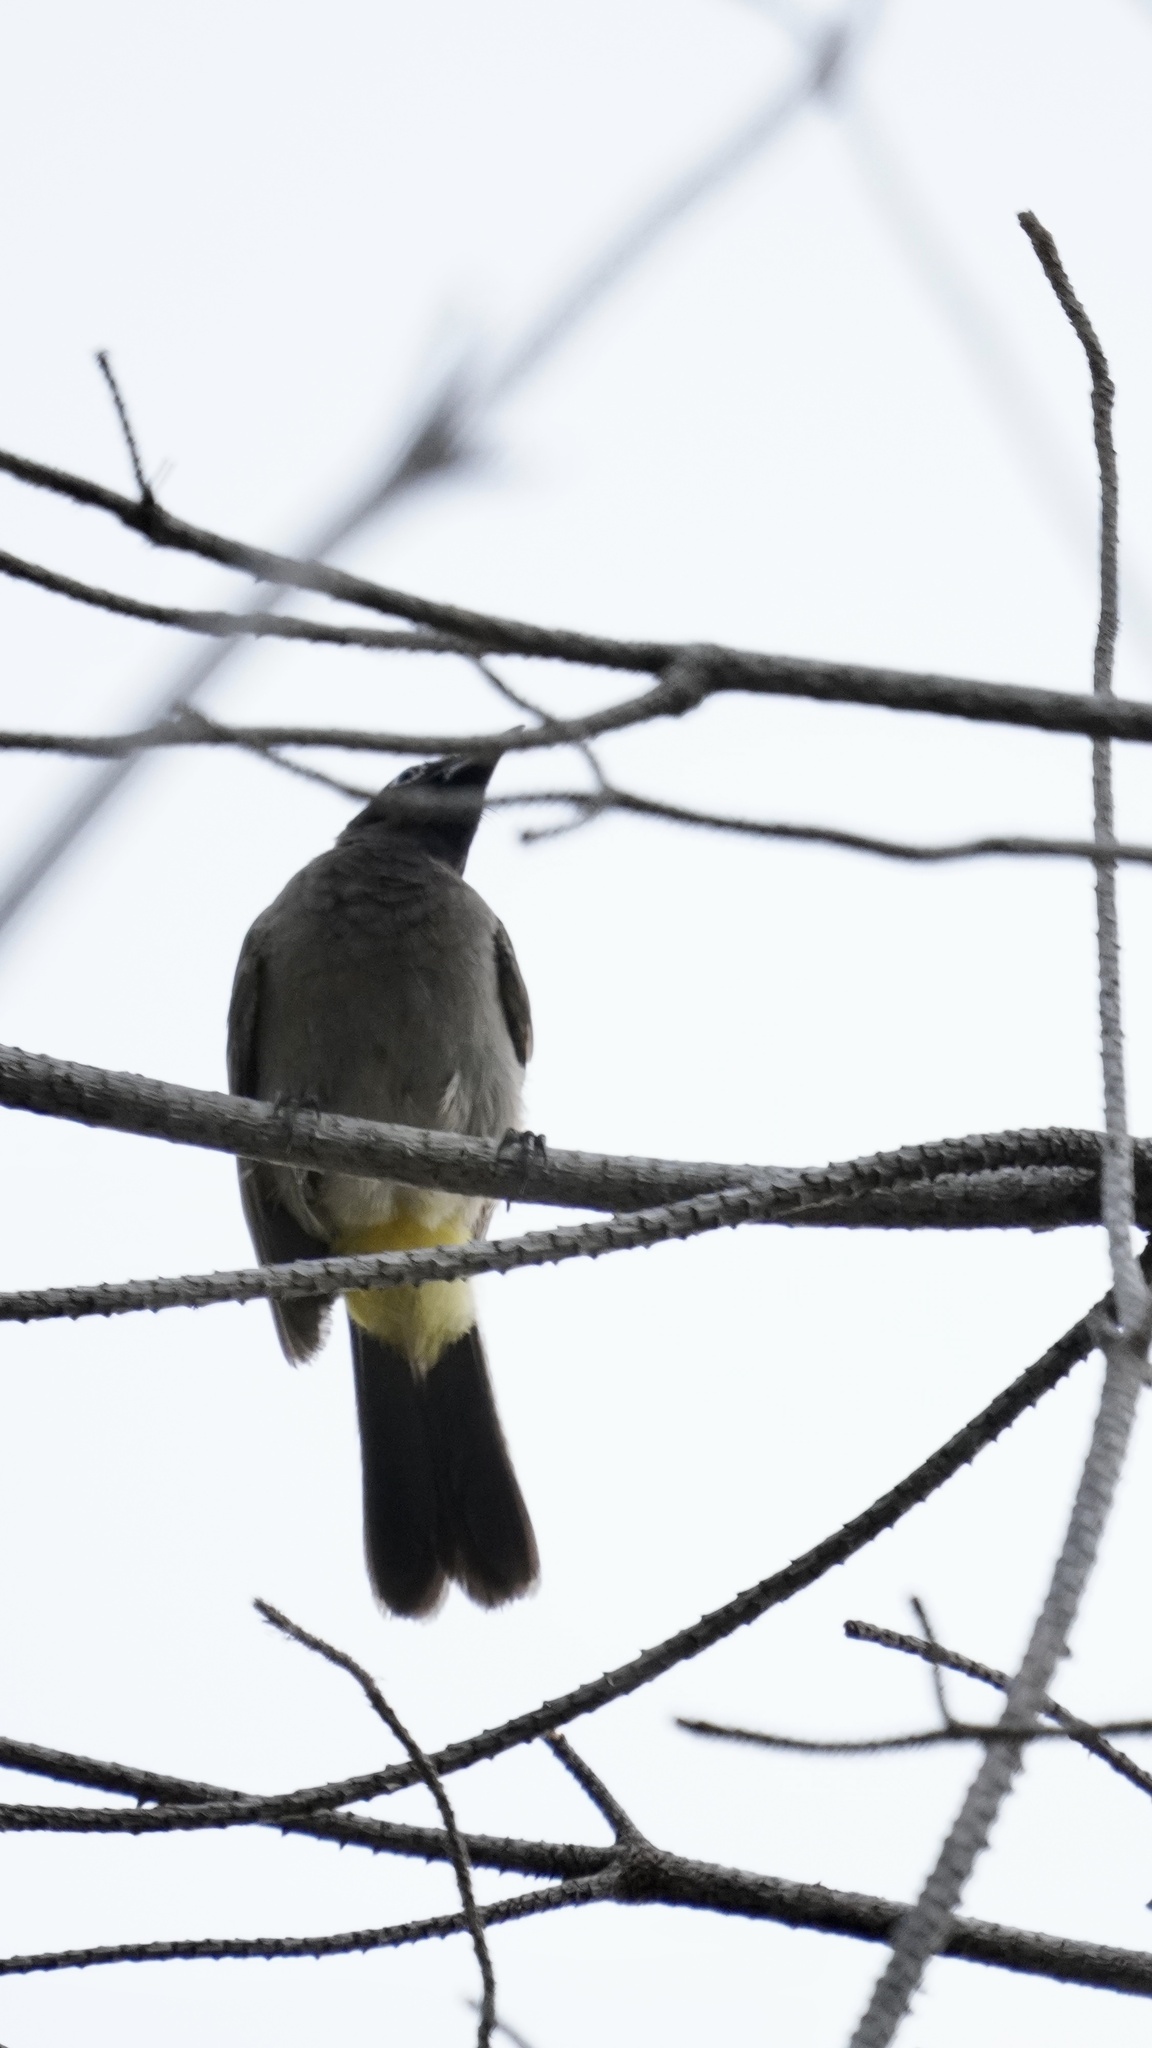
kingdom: Animalia
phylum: Chordata
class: Aves
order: Passeriformes
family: Pycnonotidae
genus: Pycnonotus
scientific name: Pycnonotus xanthopygos
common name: White-spectacled bulbul
